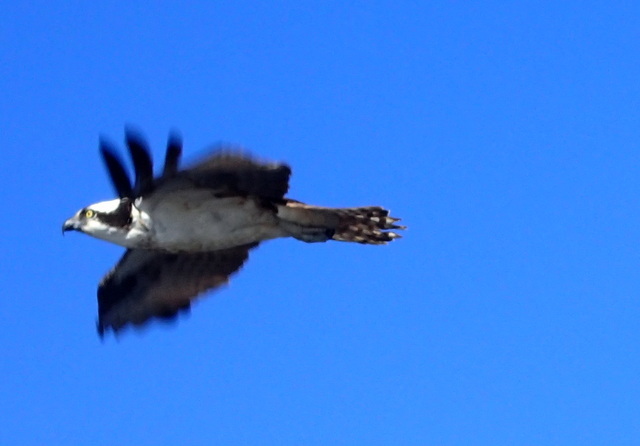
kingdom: Animalia
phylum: Chordata
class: Aves
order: Accipitriformes
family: Pandionidae
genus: Pandion
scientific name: Pandion haliaetus
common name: Osprey
